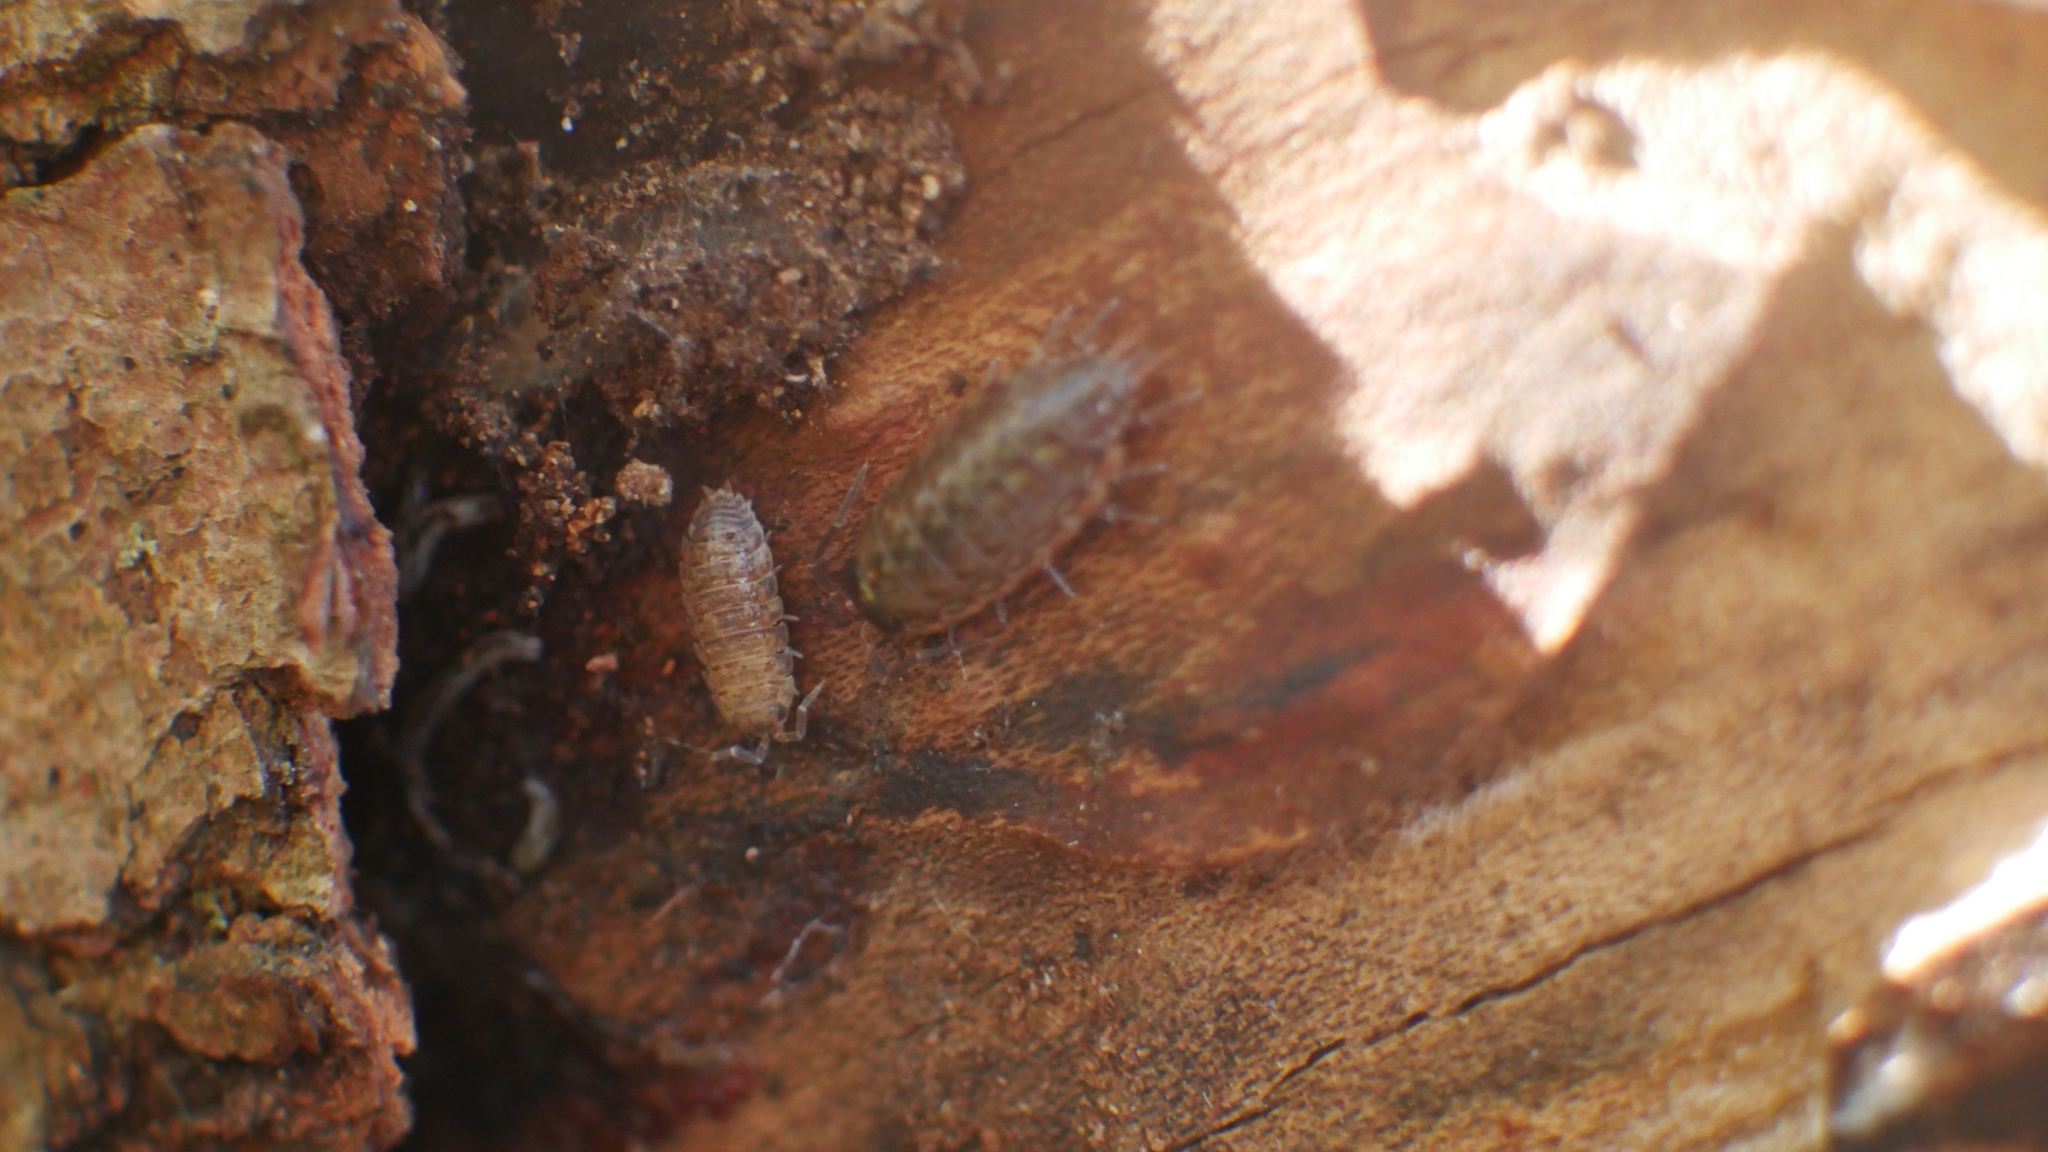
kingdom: Animalia
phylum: Arthropoda
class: Malacostraca
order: Isopoda
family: Philosciidae
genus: Philoscia
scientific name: Philoscia muscorum
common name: Common striped woodlouse
